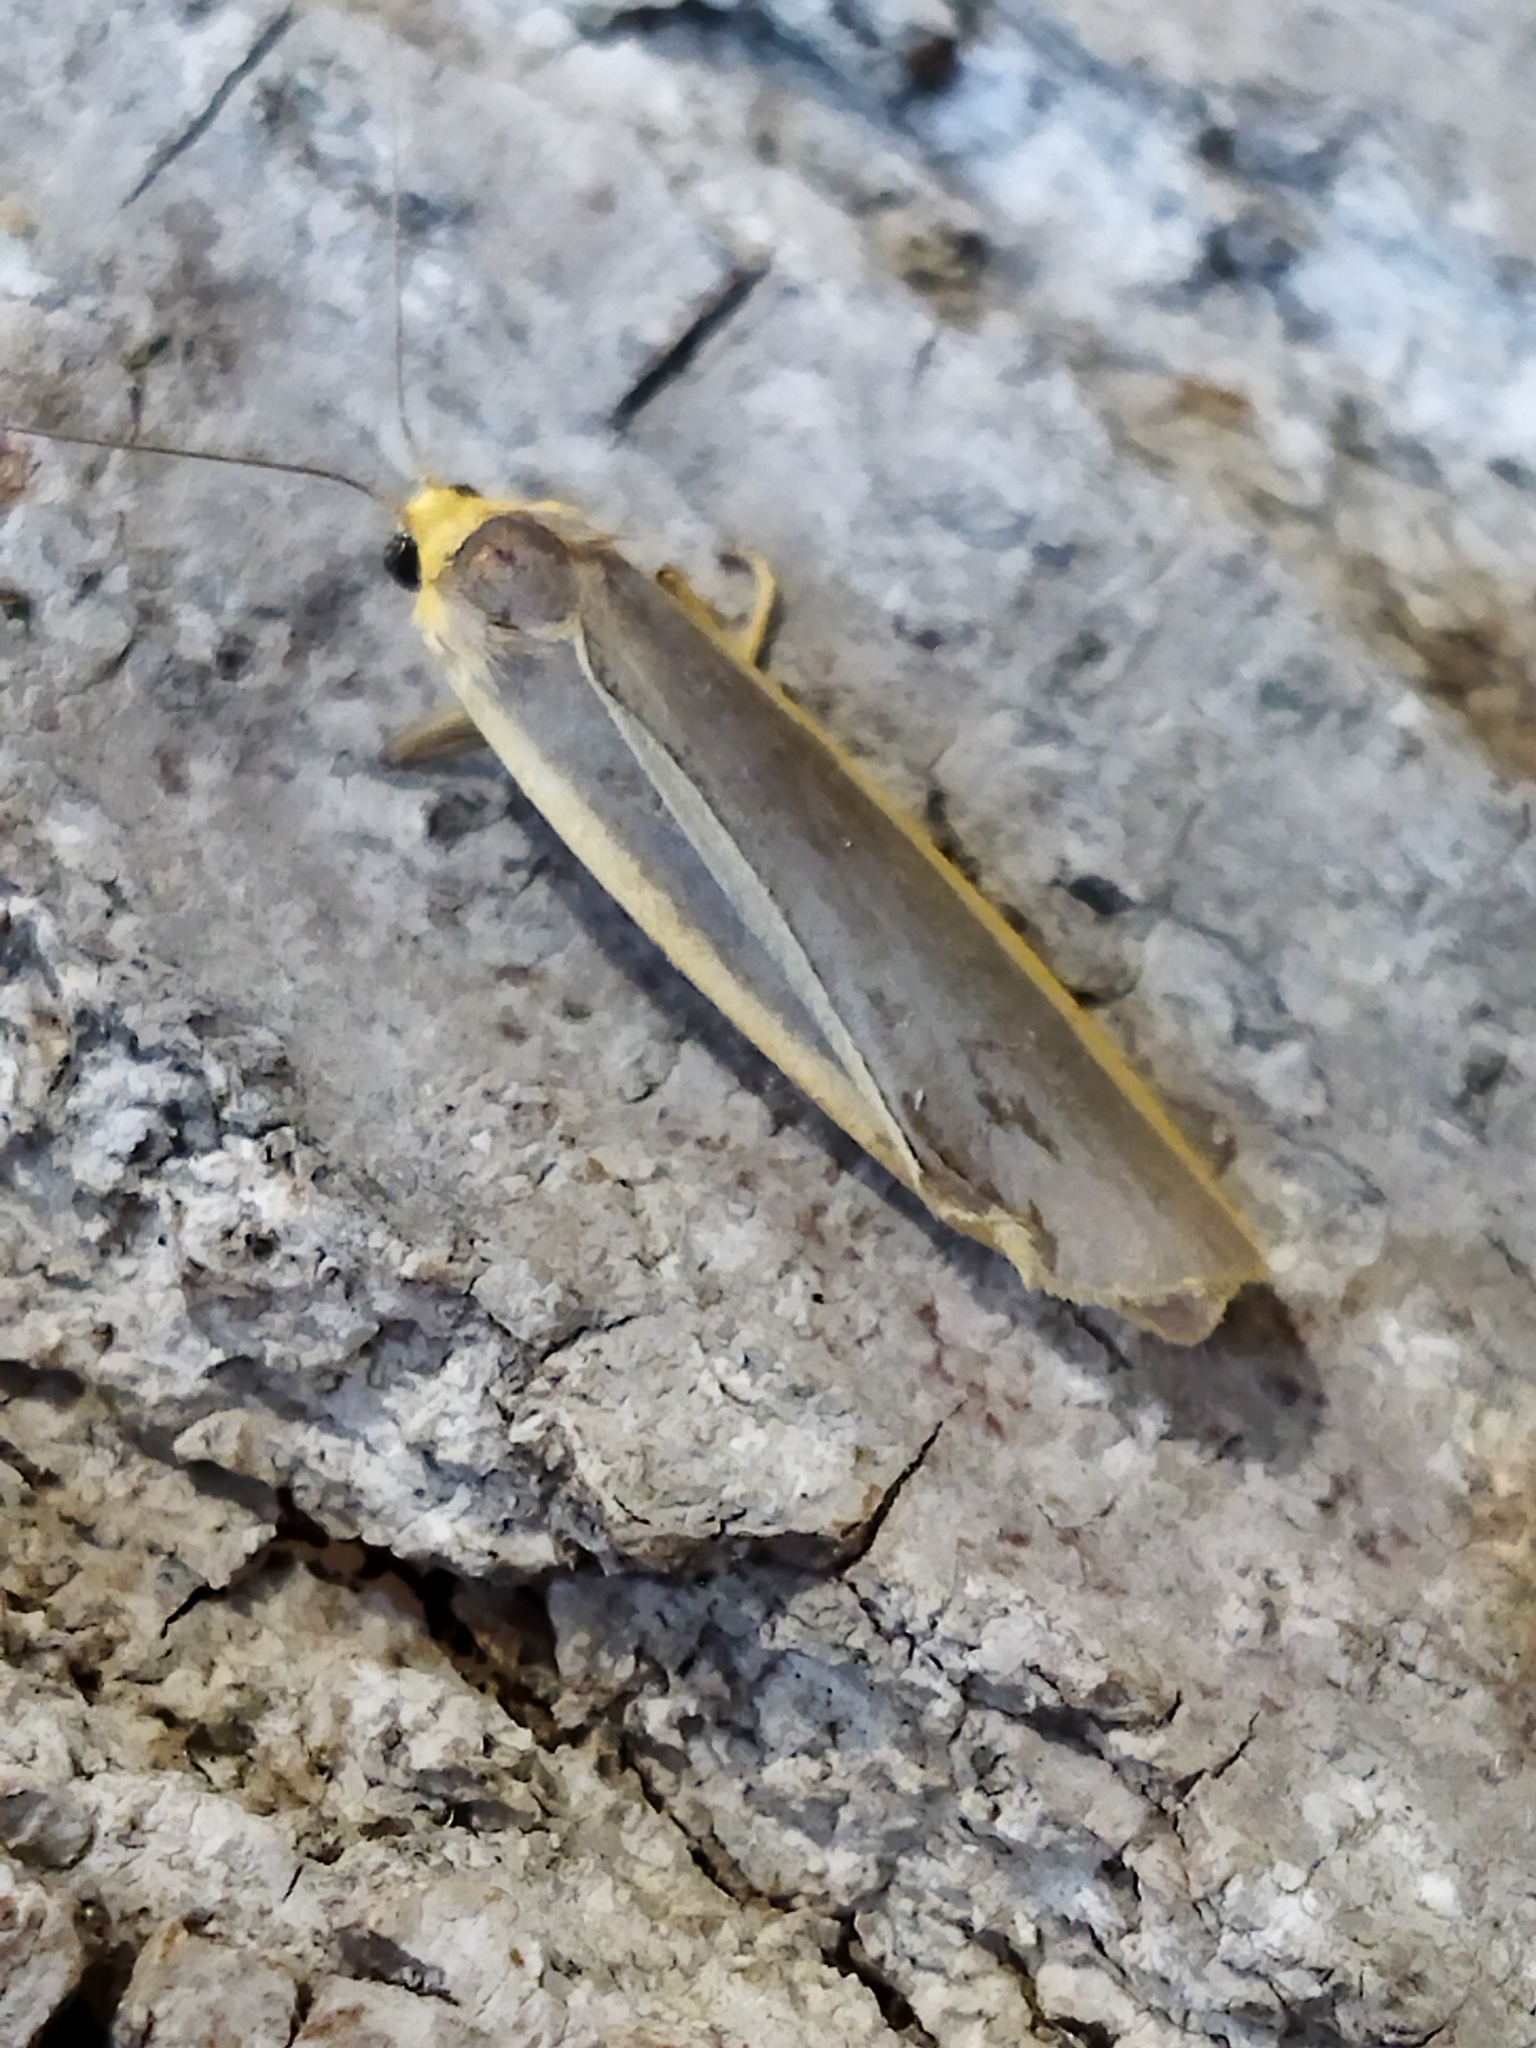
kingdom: Animalia
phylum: Arthropoda
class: Insecta
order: Lepidoptera
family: Erebidae
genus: Nyea
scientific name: Nyea lurideola
